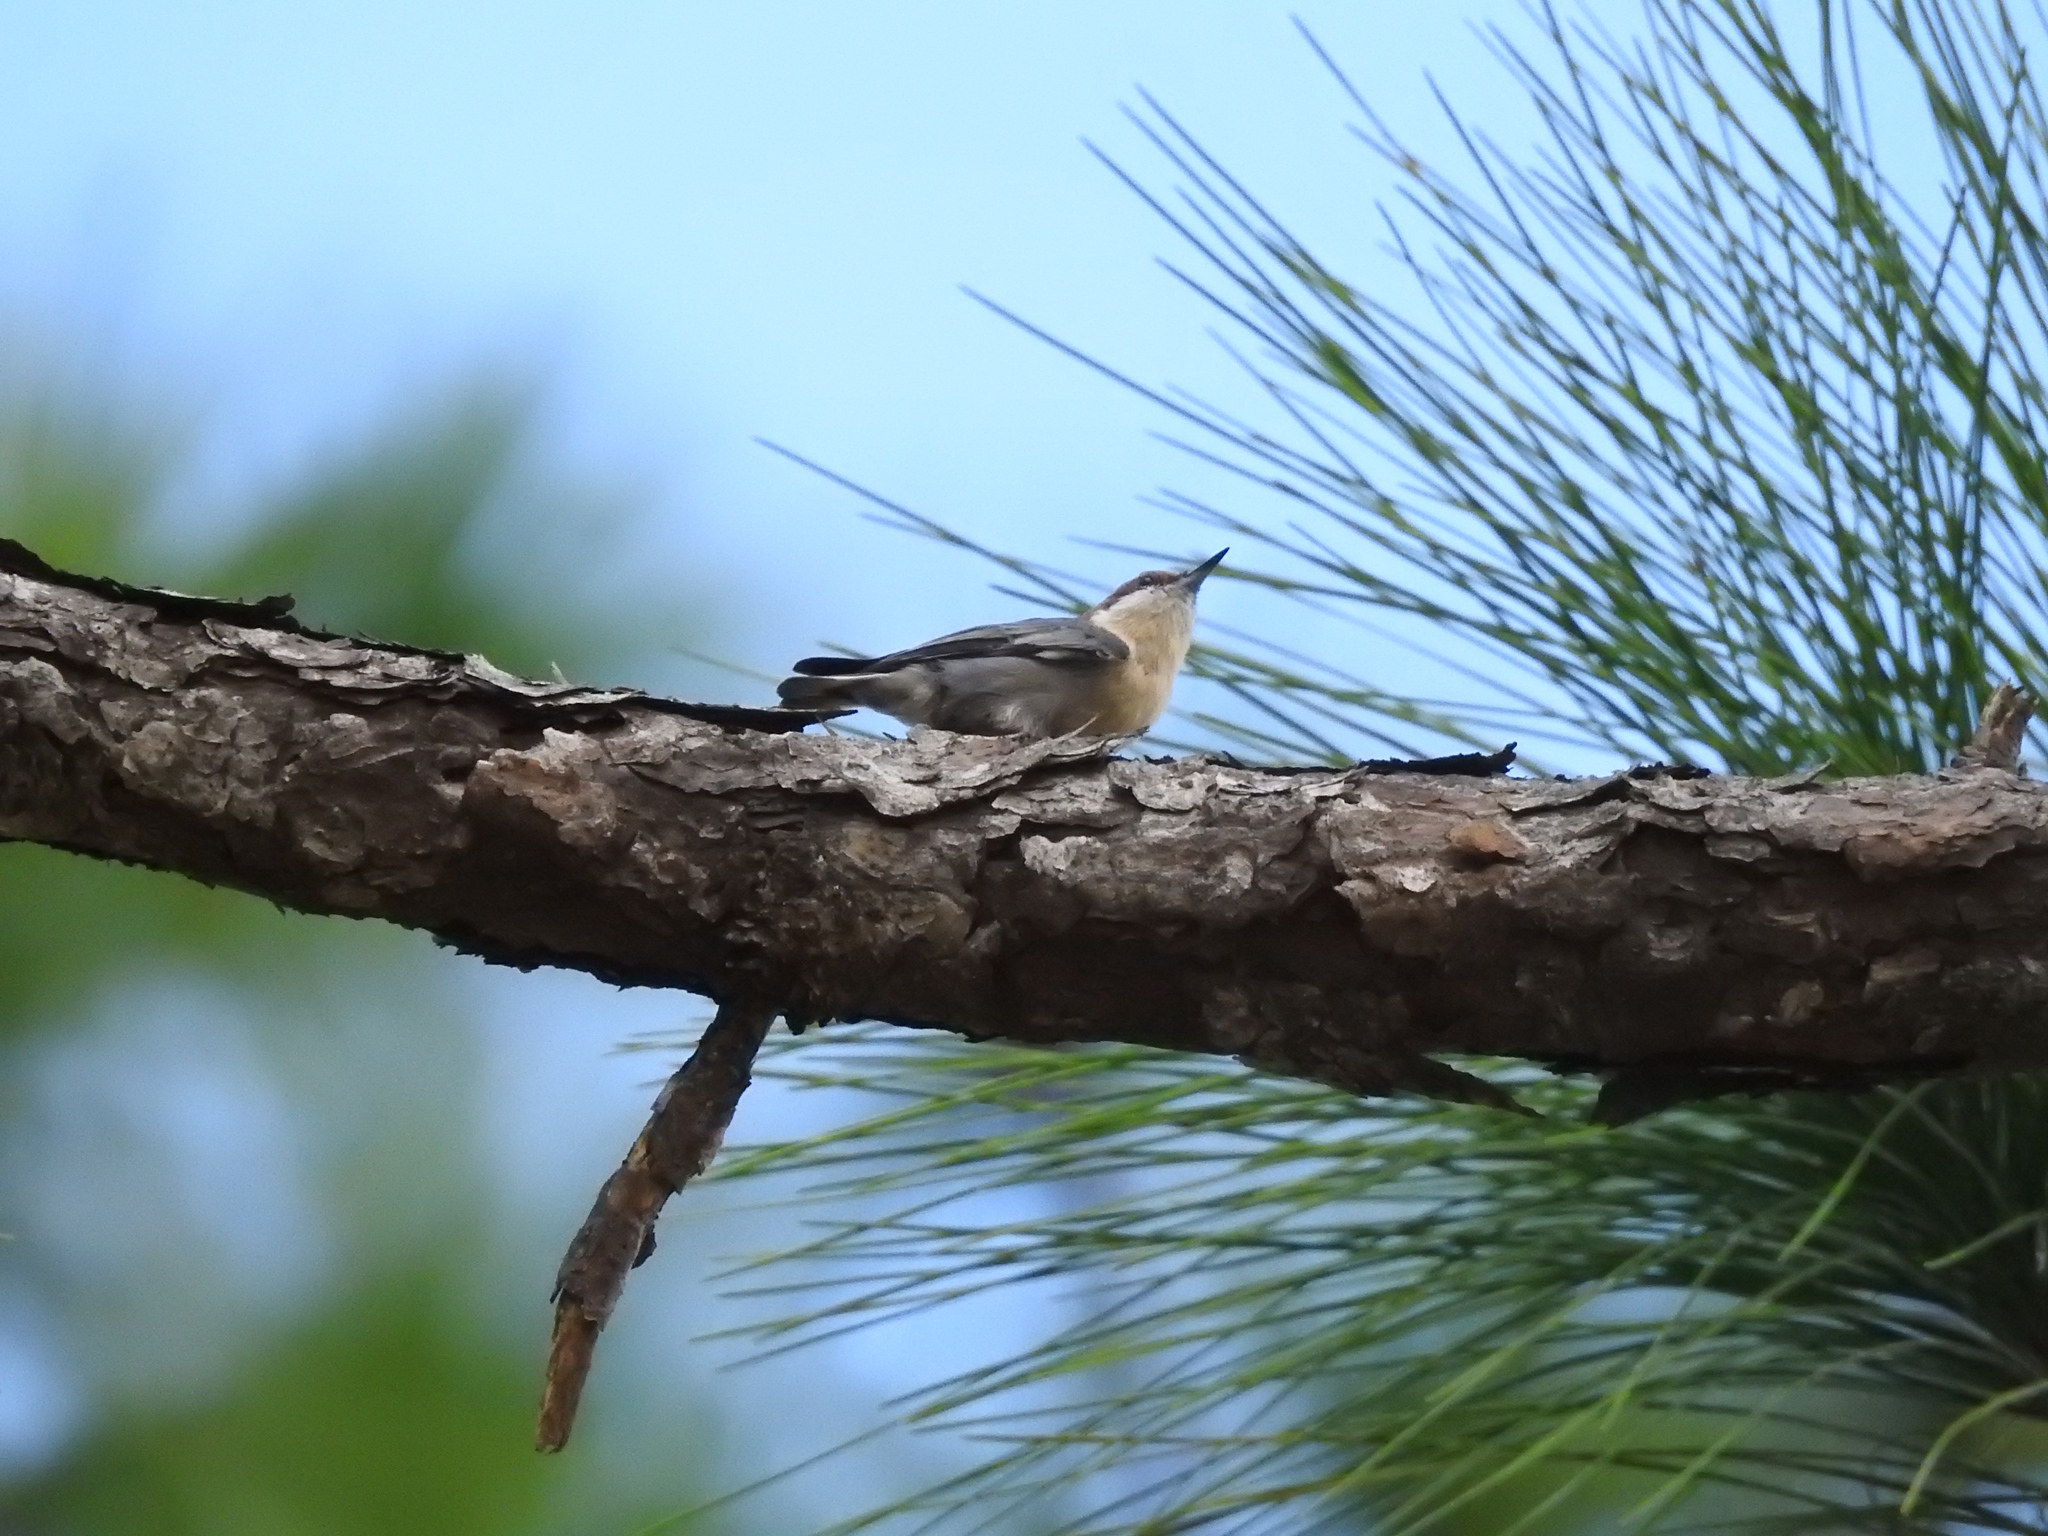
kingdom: Animalia
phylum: Chordata
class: Aves
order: Passeriformes
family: Sittidae
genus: Sitta
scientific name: Sitta pusilla
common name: Brown-headed nuthatch
